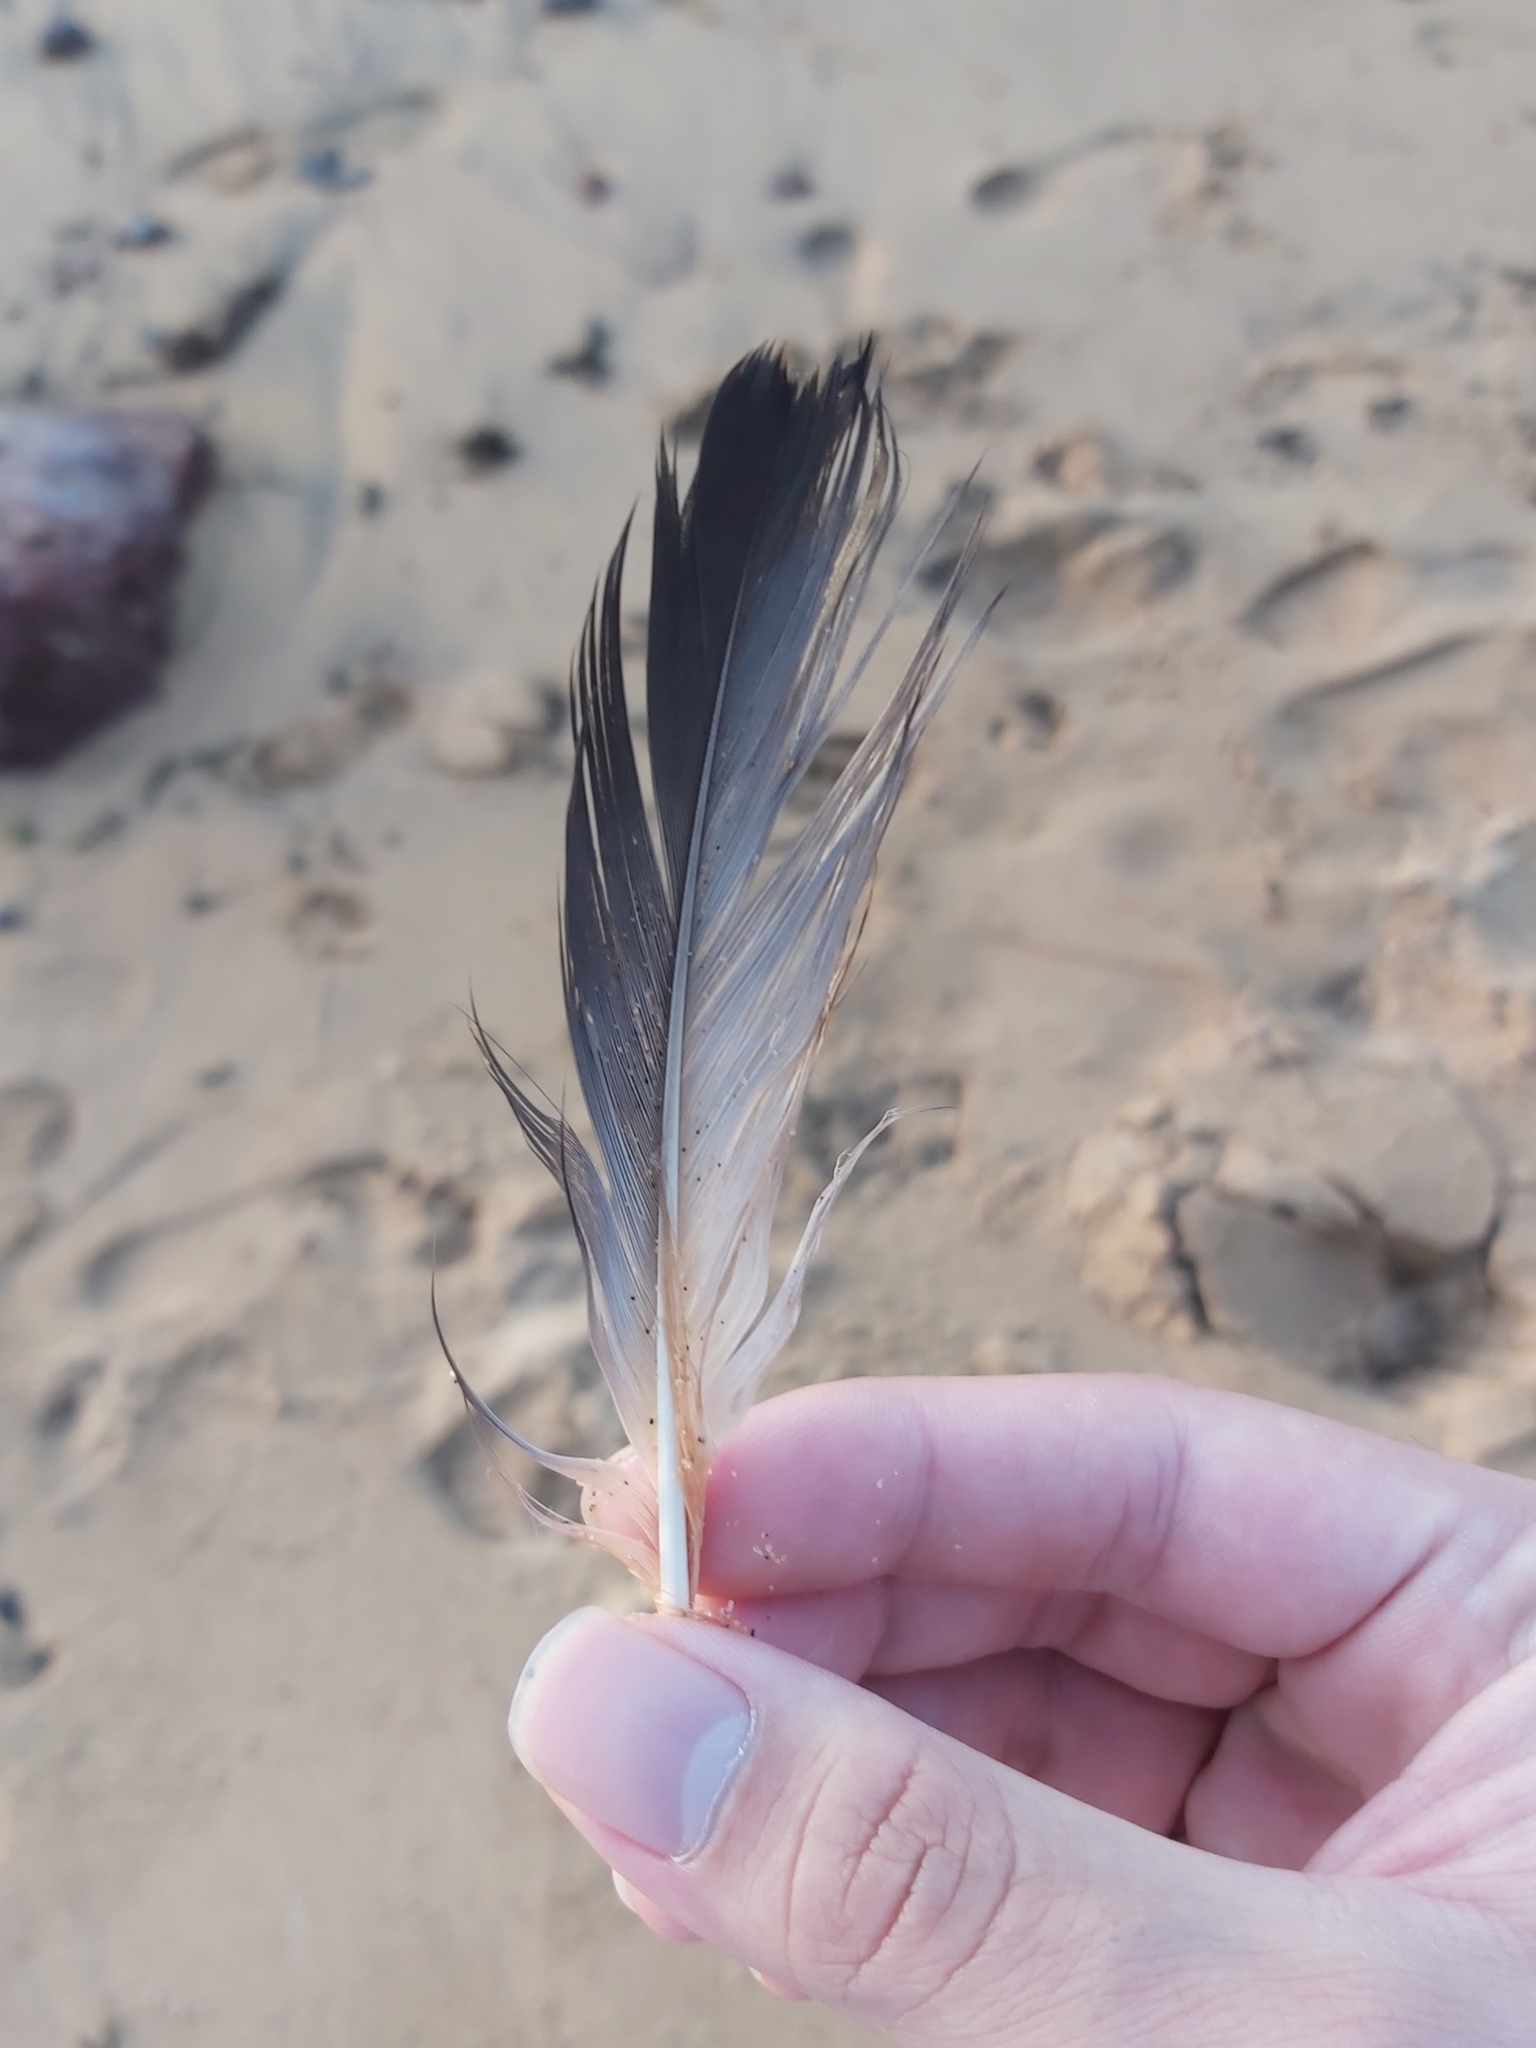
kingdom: Animalia
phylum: Chordata
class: Aves
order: Suliformes
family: Sulidae
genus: Morus
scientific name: Morus serrator
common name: Australasian gannet
